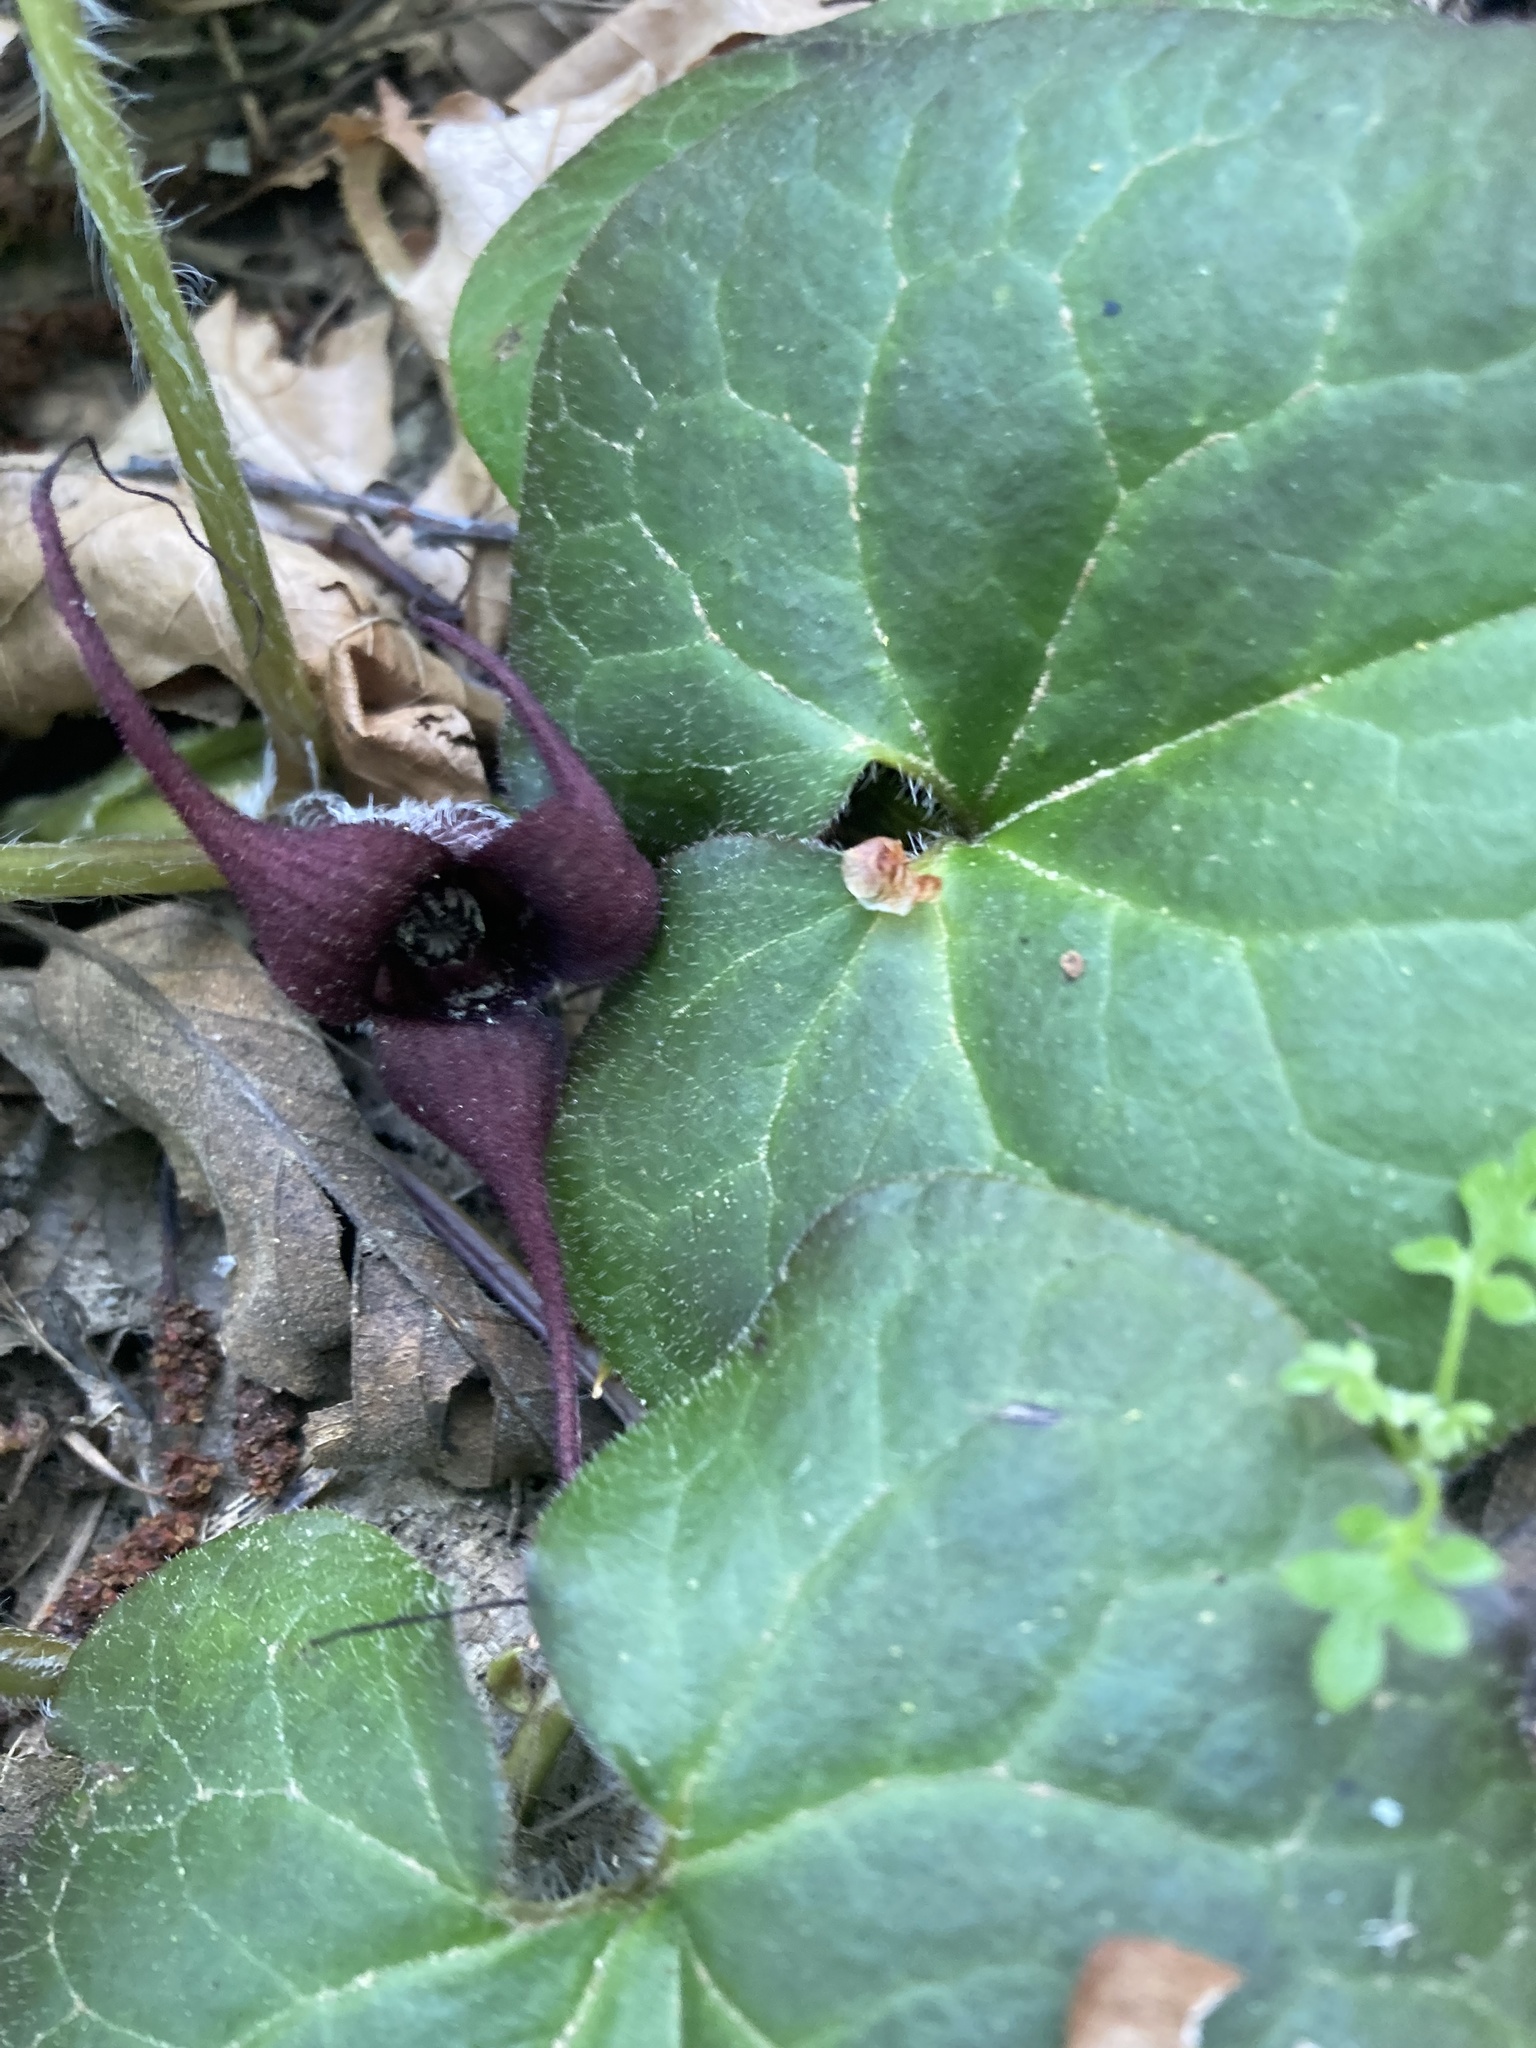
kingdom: Plantae
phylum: Tracheophyta
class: Magnoliopsida
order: Piperales
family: Aristolochiaceae
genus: Asarum
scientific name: Asarum caudatum
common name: Wild ginger
